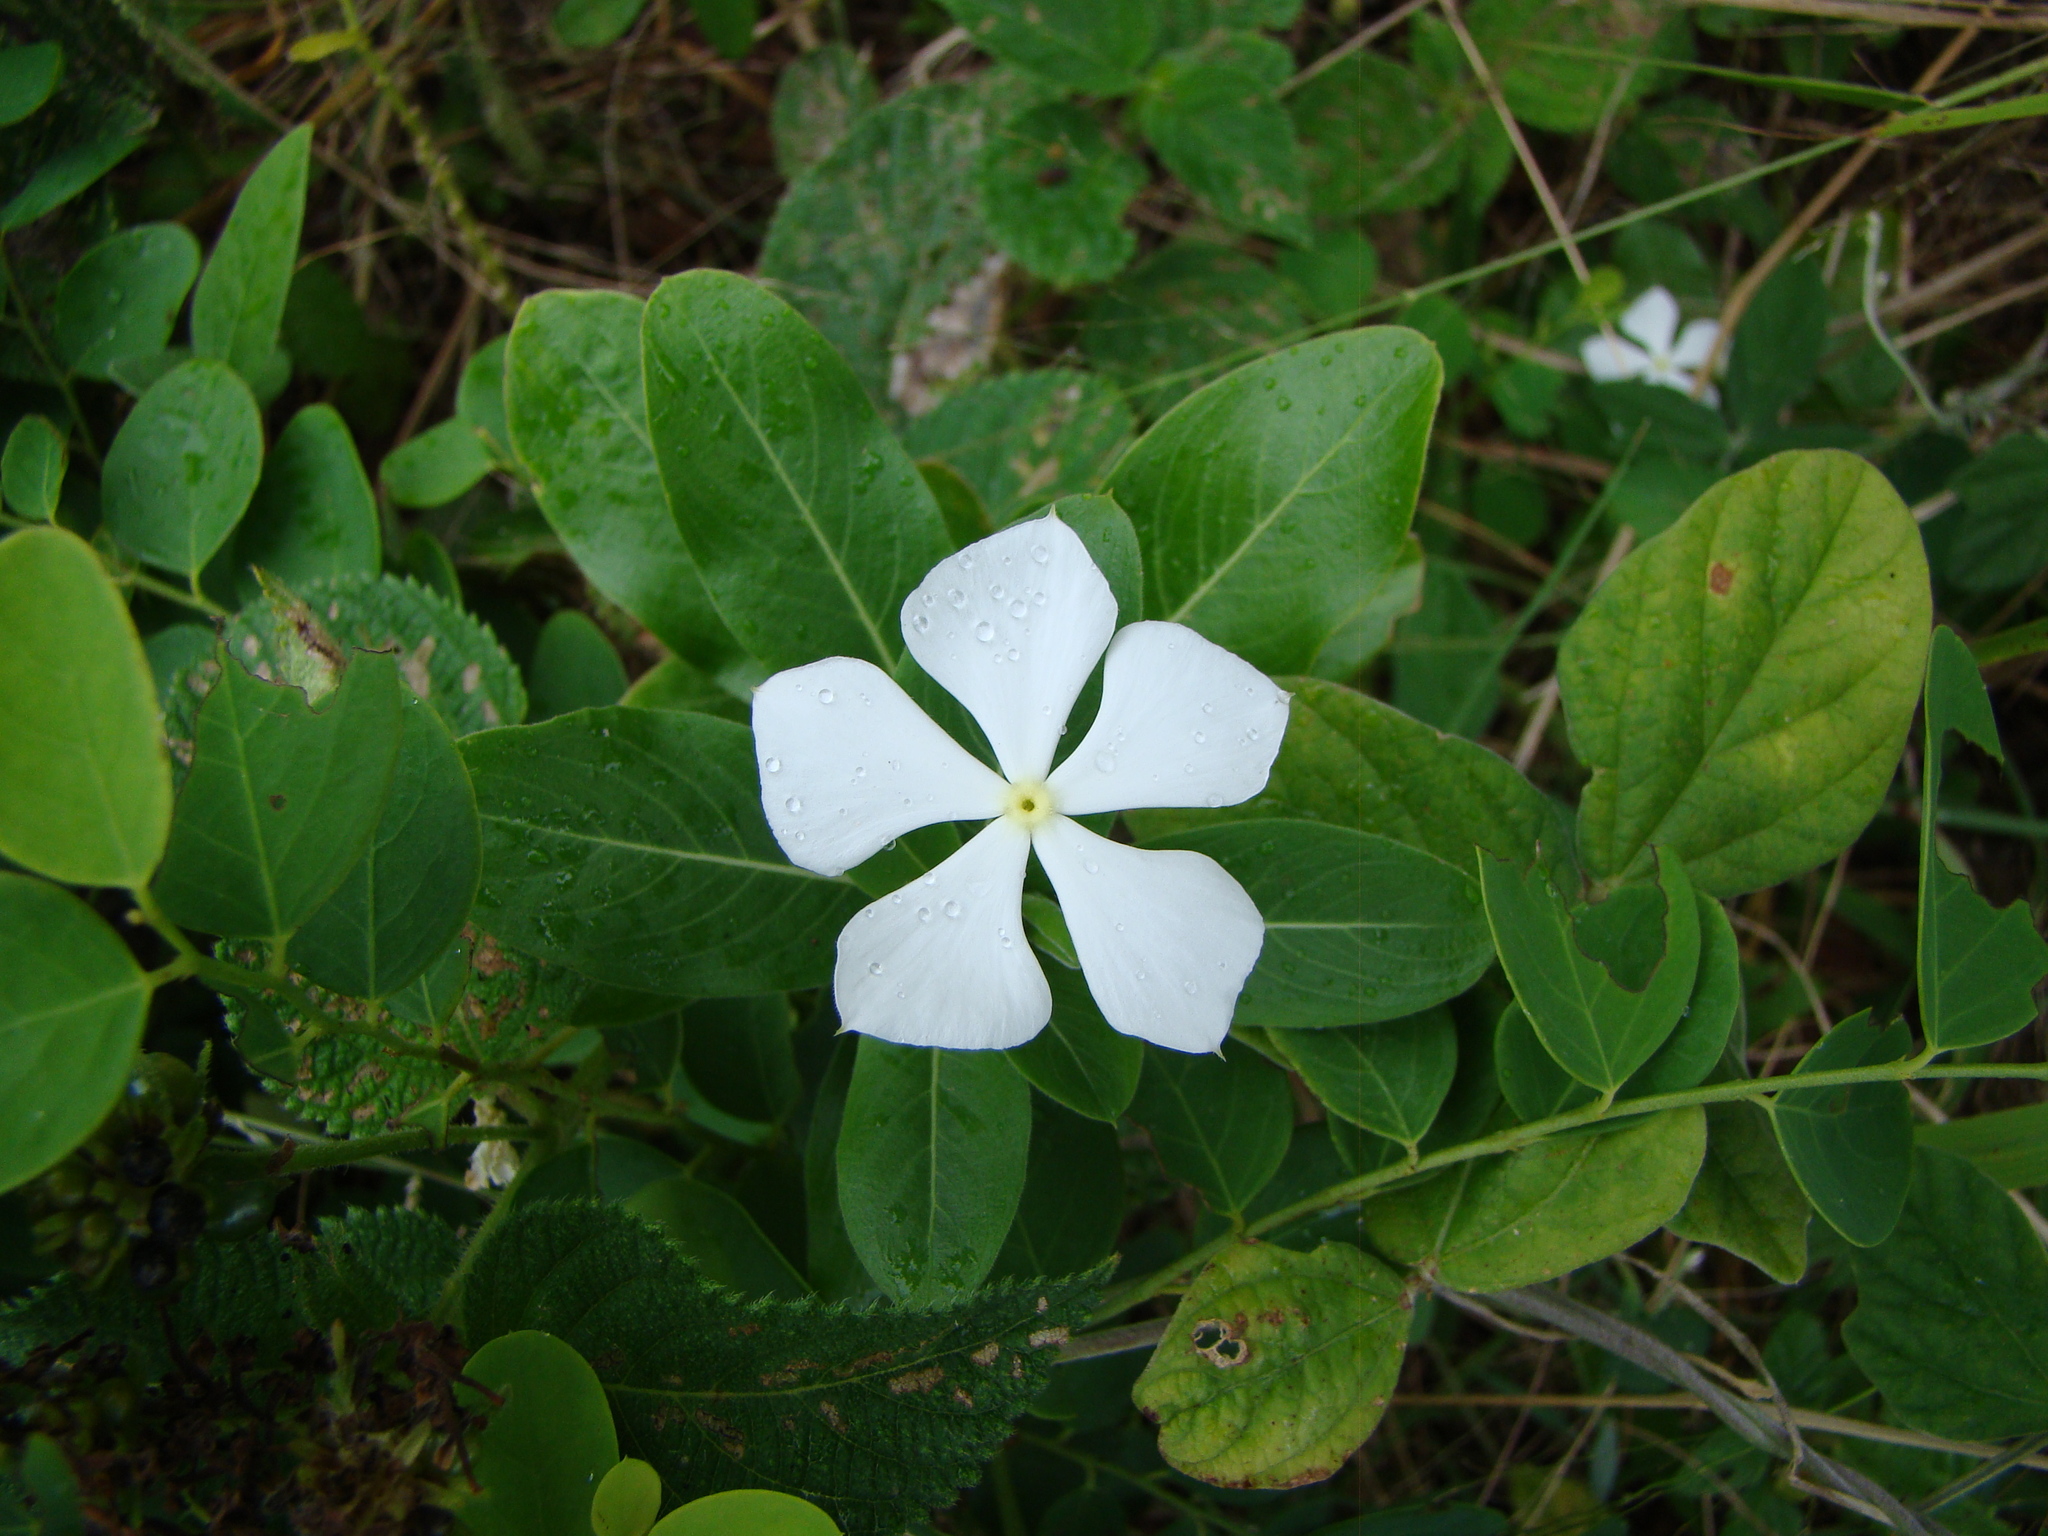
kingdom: Plantae
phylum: Tracheophyta
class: Magnoliopsida
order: Gentianales
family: Apocynaceae
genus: Catharanthus
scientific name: Catharanthus roseus
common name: Madagascar periwinkle
